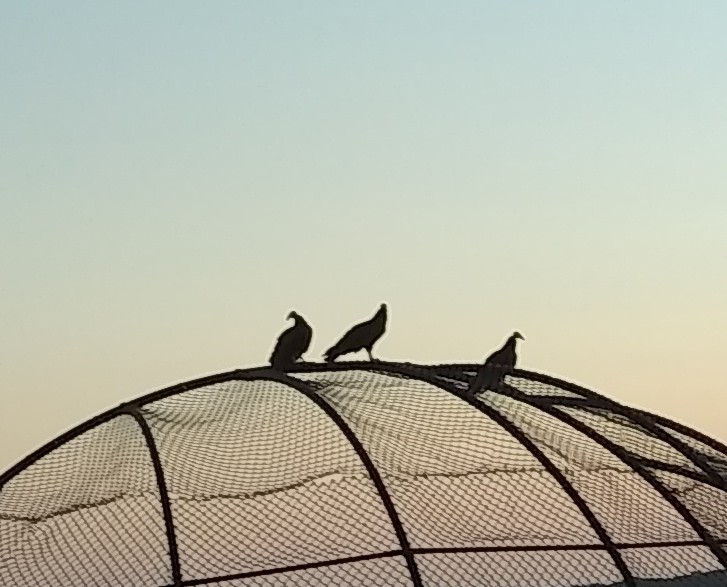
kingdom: Animalia
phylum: Chordata
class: Aves
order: Accipitriformes
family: Cathartidae
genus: Cathartes
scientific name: Cathartes aura
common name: Turkey vulture
